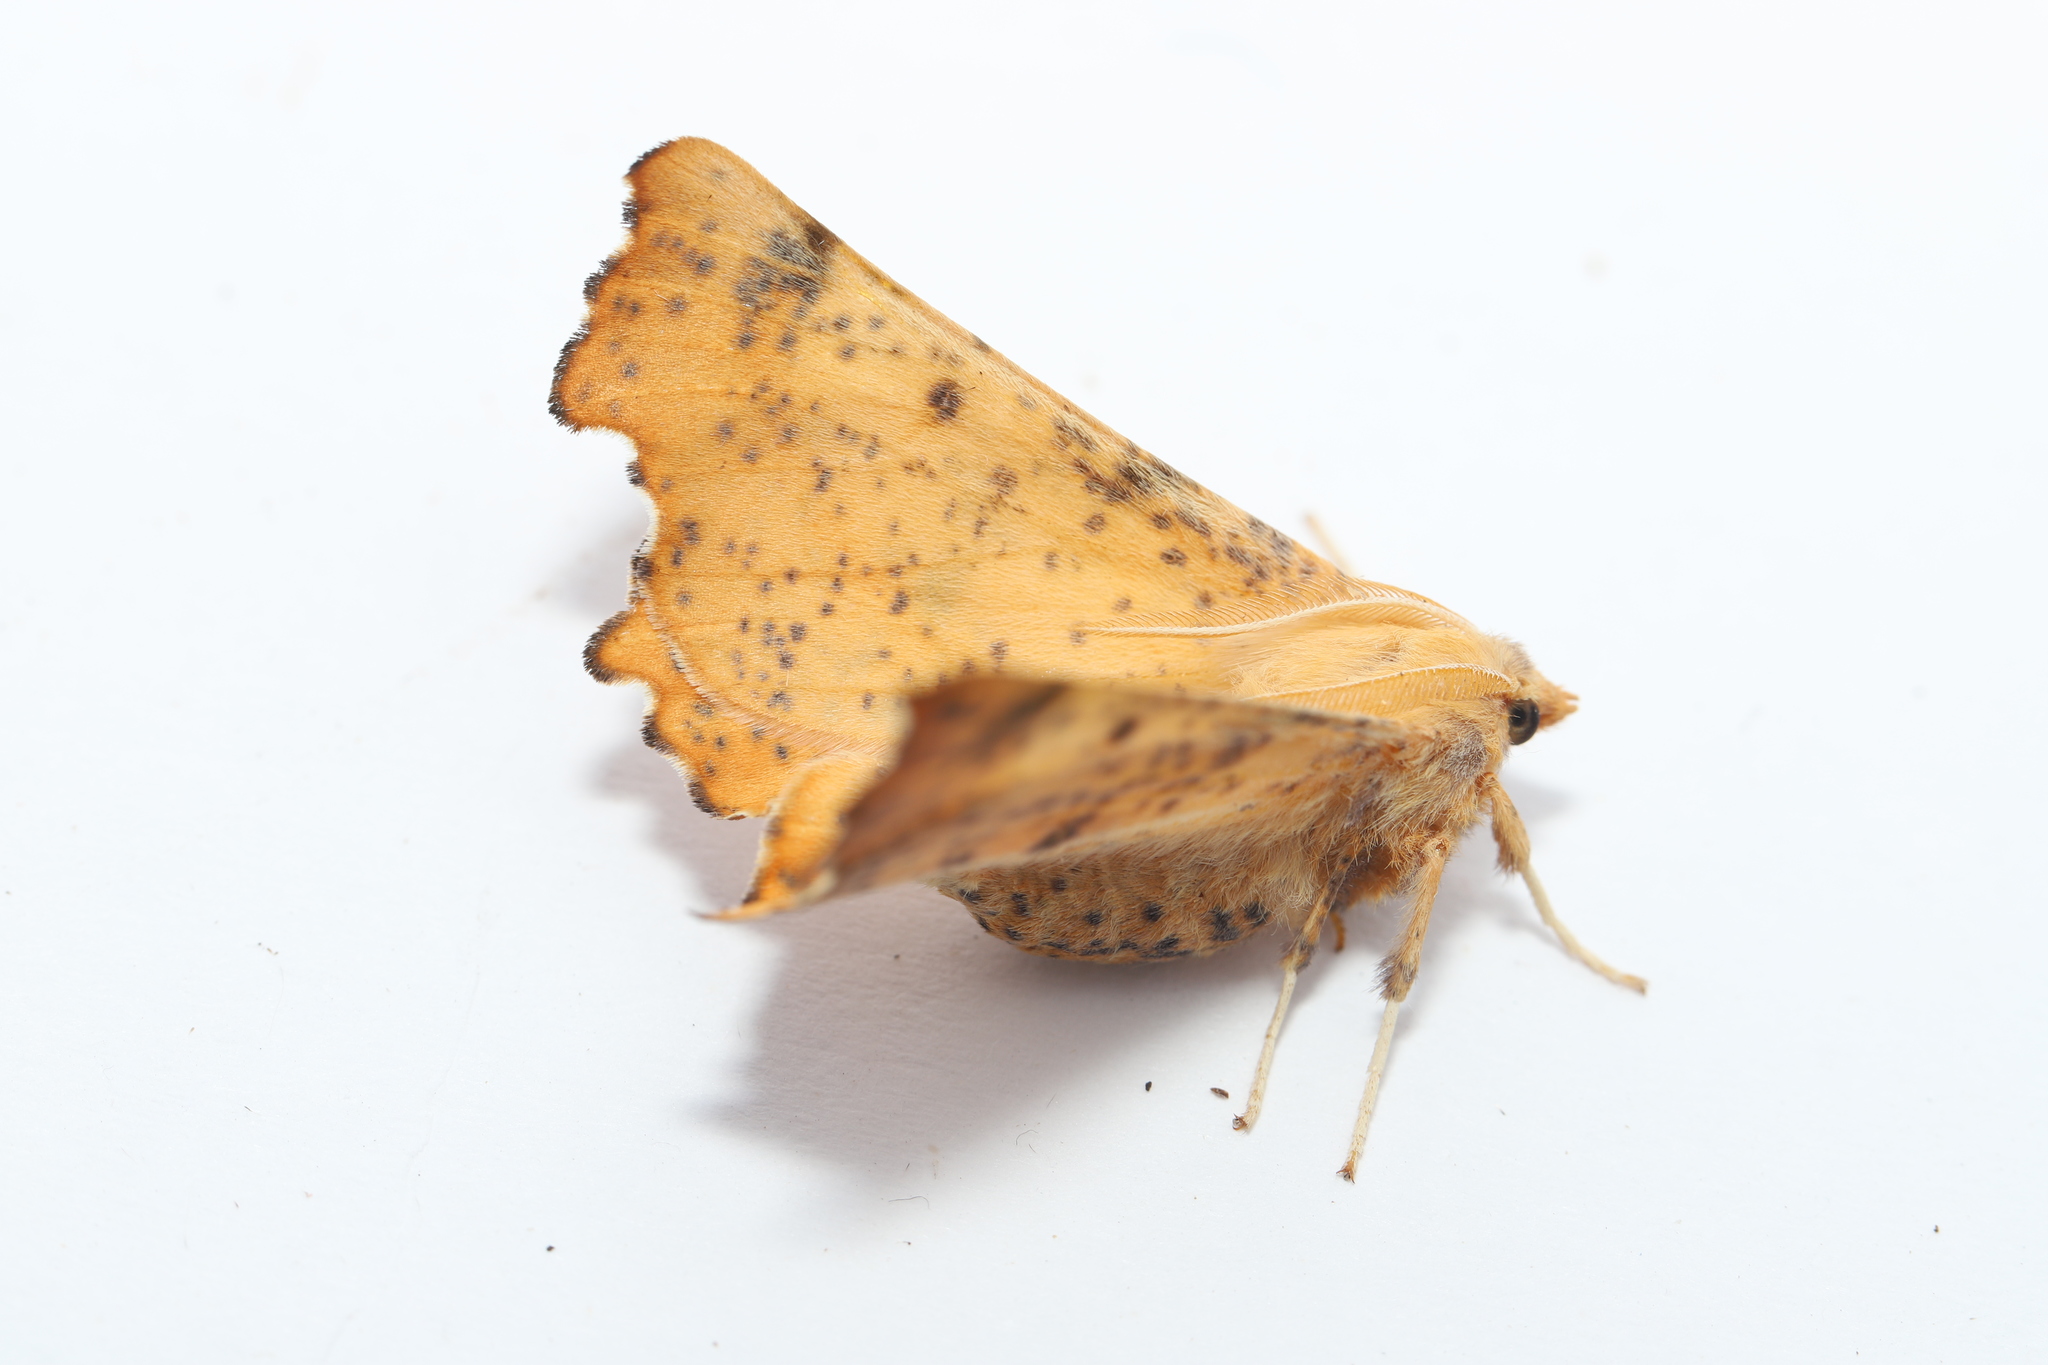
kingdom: Animalia
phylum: Arthropoda
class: Insecta
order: Lepidoptera
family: Geometridae
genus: Ennomos
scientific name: Ennomos magnaria
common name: Maple spanworm
